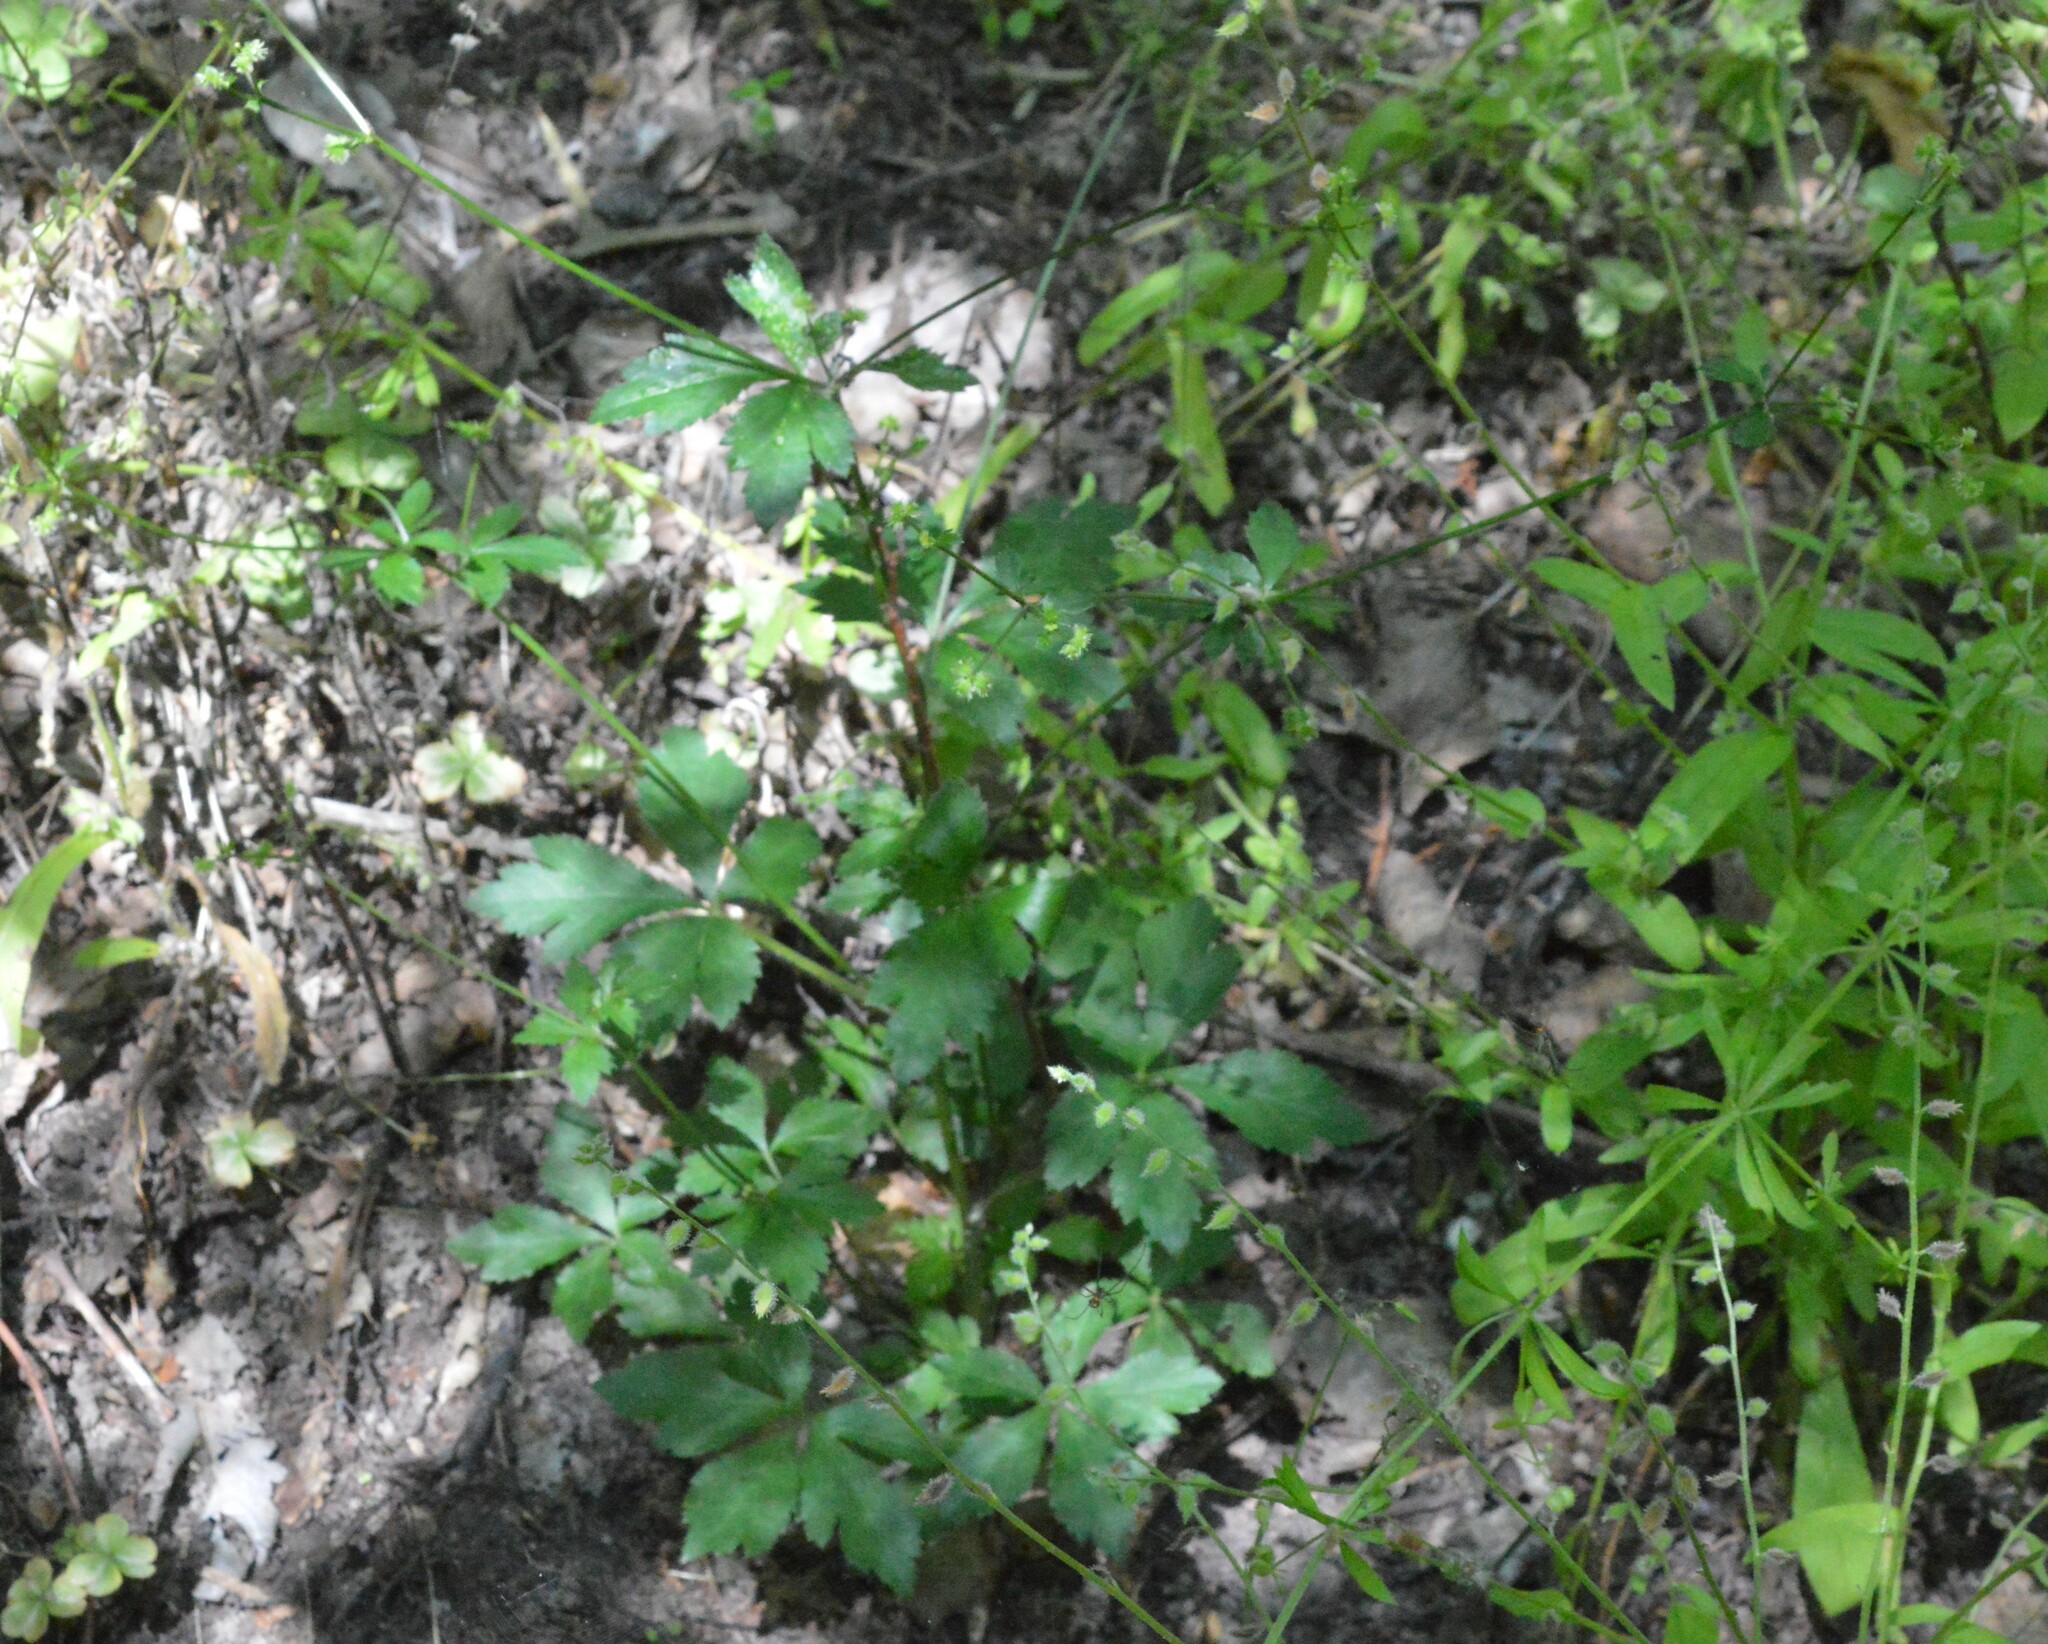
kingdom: Plantae
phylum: Tracheophyta
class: Magnoliopsida
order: Apiales
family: Apiaceae
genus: Sanicula
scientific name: Sanicula canadensis
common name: Canada sanicle
